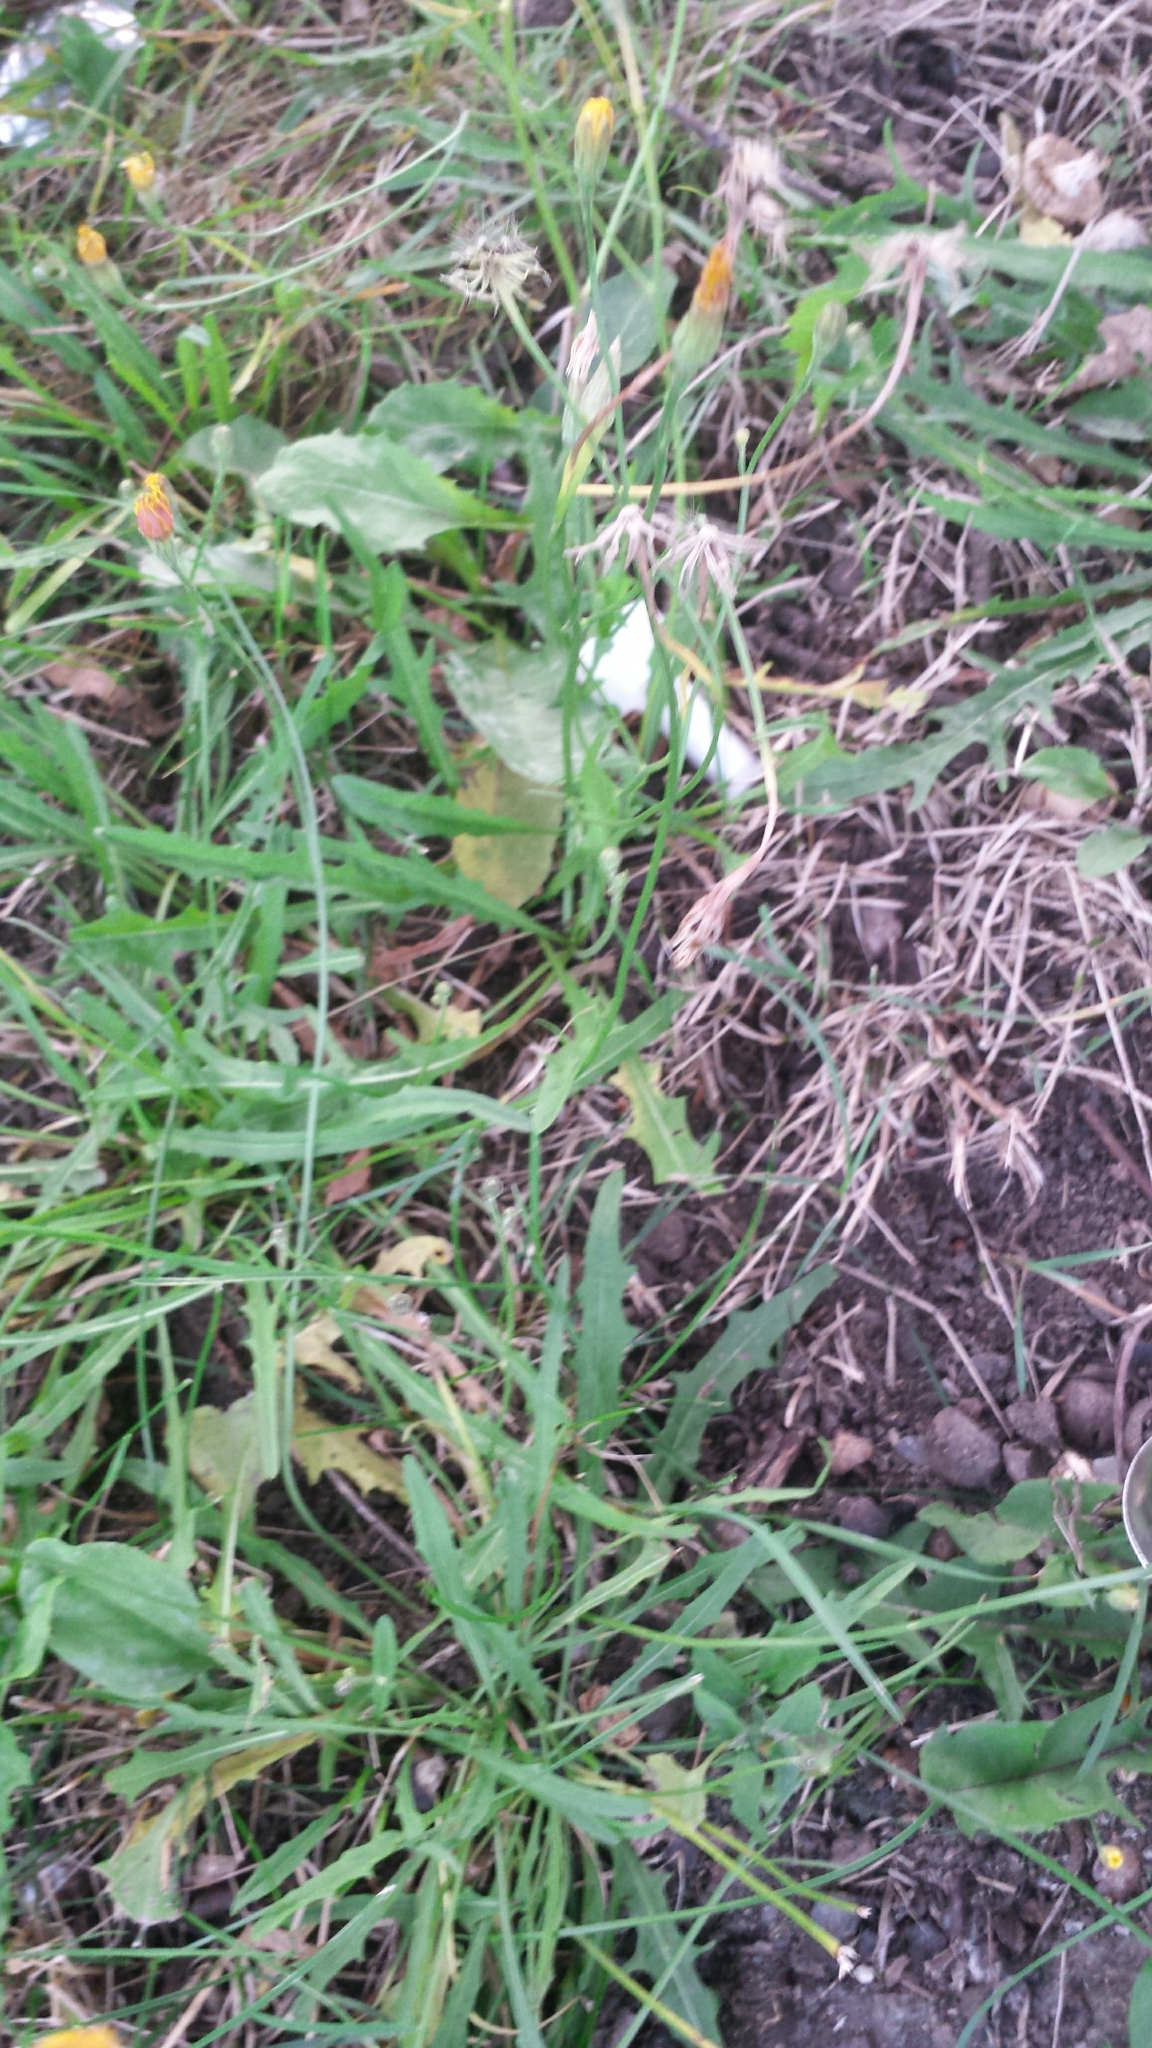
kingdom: Plantae
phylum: Tracheophyta
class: Magnoliopsida
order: Asterales
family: Asteraceae
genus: Scorzoneroides
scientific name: Scorzoneroides autumnalis
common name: Autumn hawkbit
